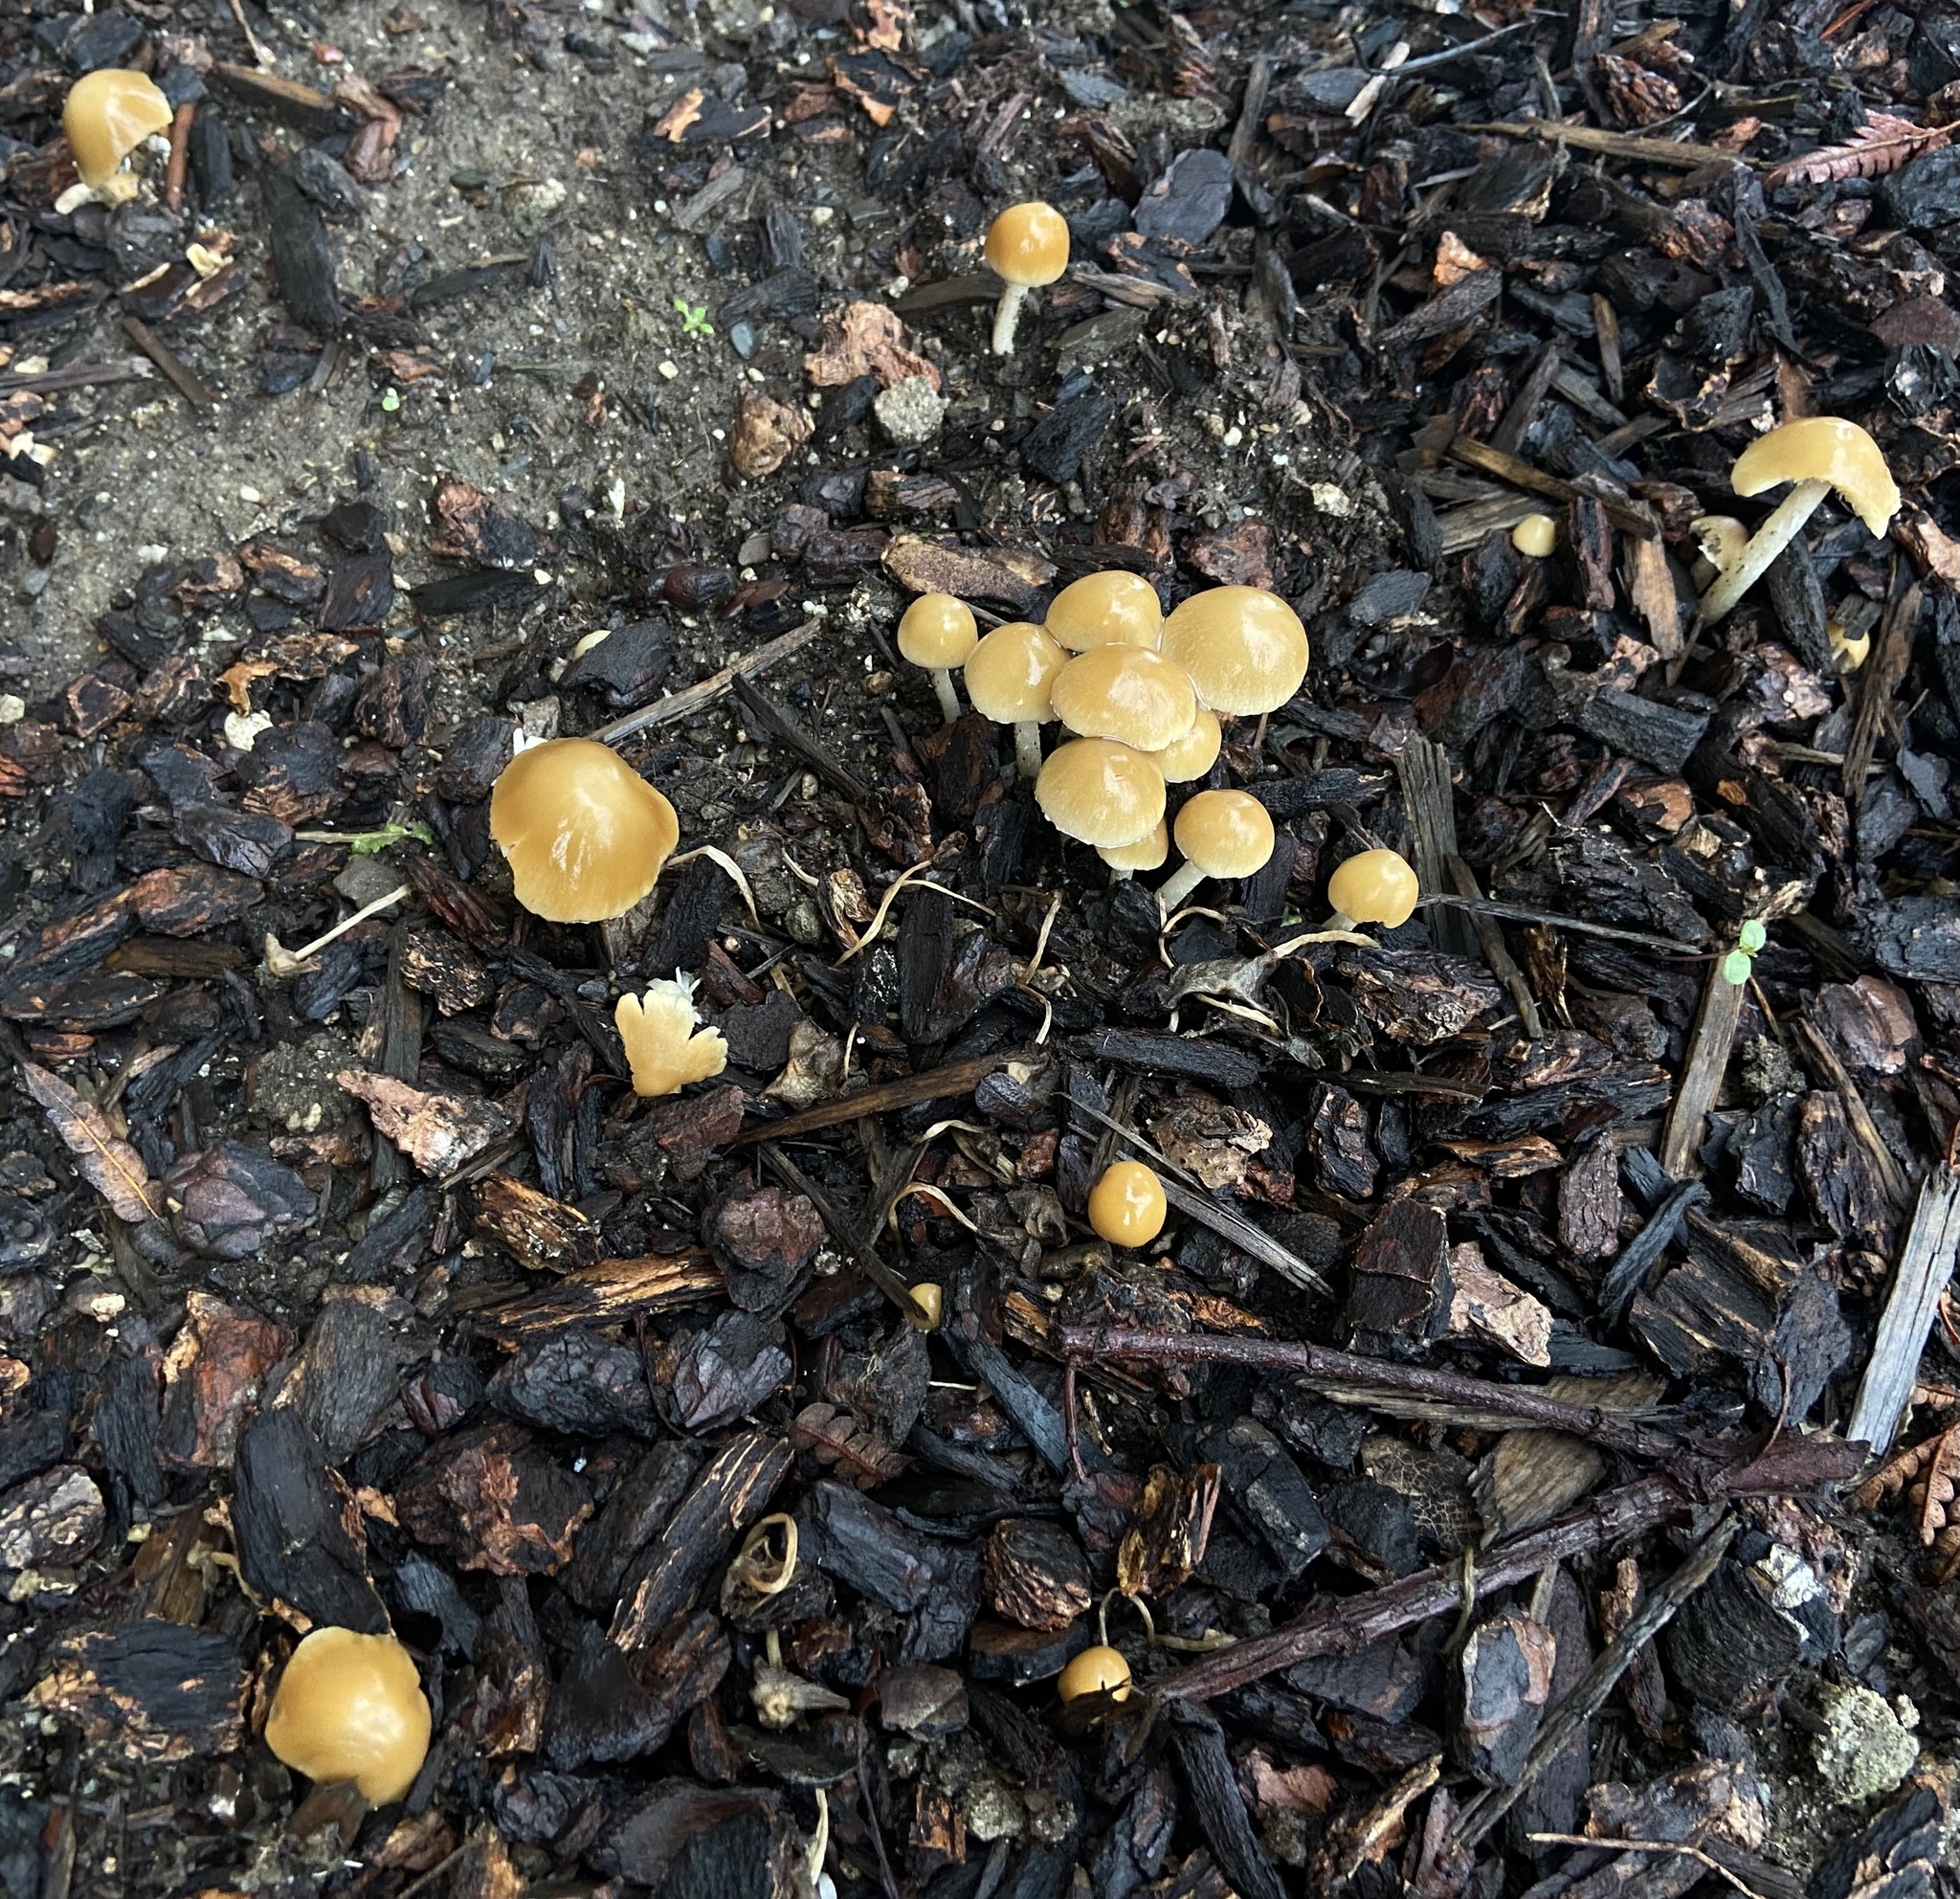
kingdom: Fungi
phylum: Basidiomycota
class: Agaricomycetes
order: Agaricales
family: Psathyrellaceae
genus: Candolleomyces
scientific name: Candolleomyces candolleanus
